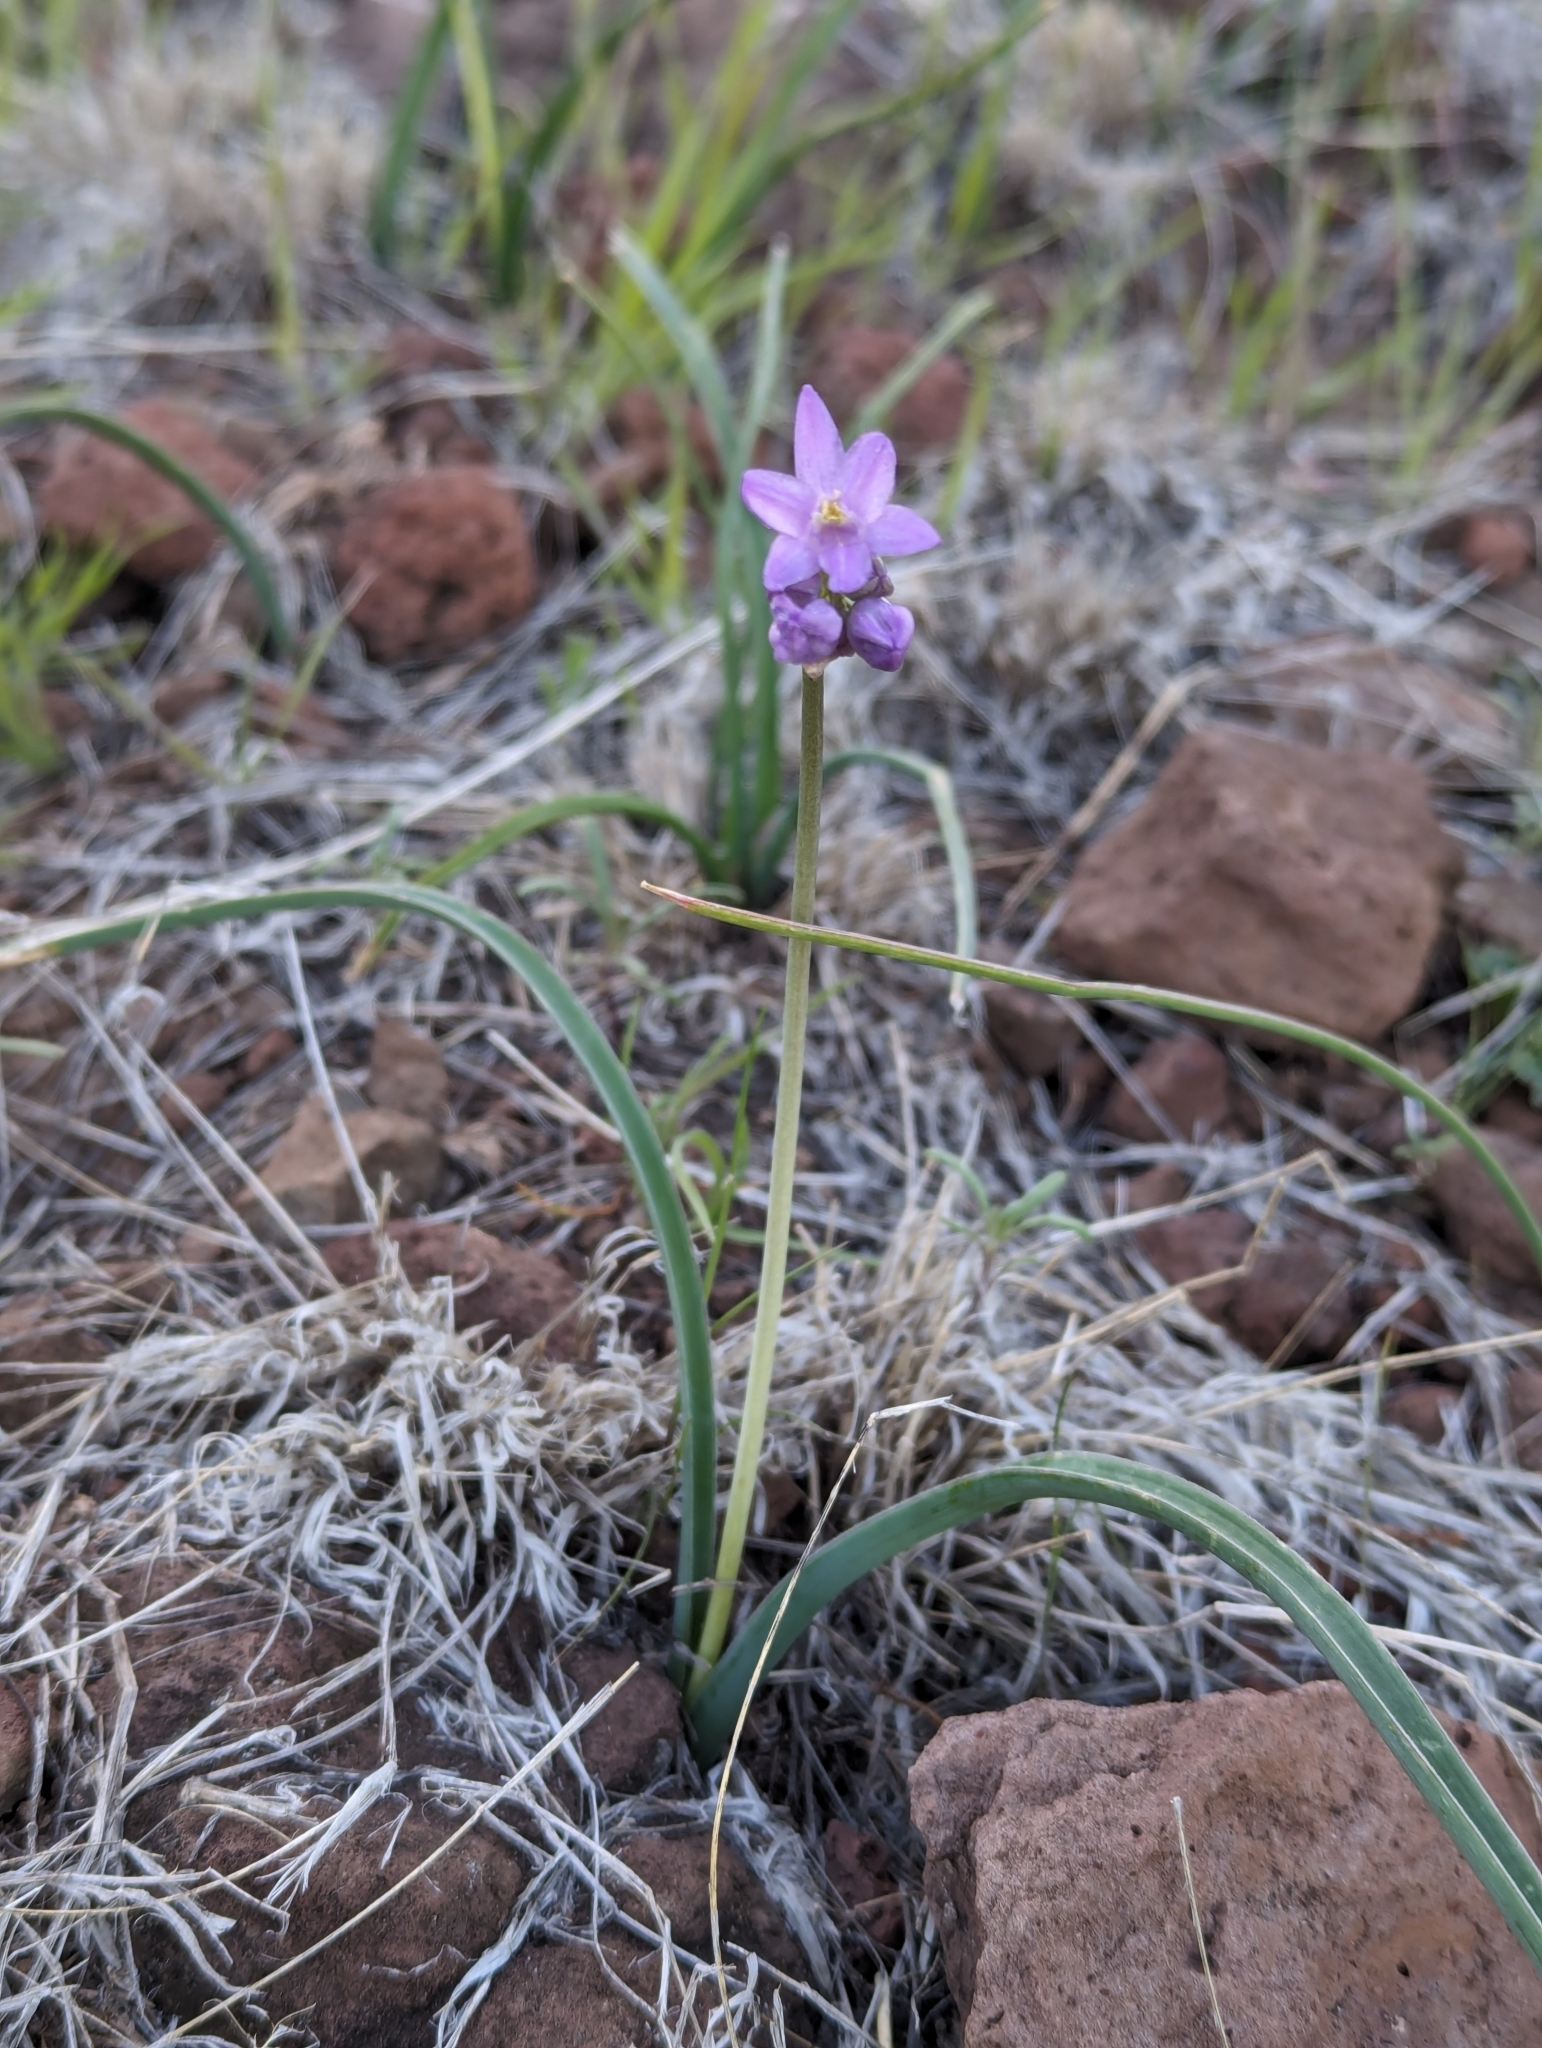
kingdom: Plantae
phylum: Tracheophyta
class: Liliopsida
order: Asparagales
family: Asparagaceae
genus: Dipterostemon
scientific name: Dipterostemon capitatus
